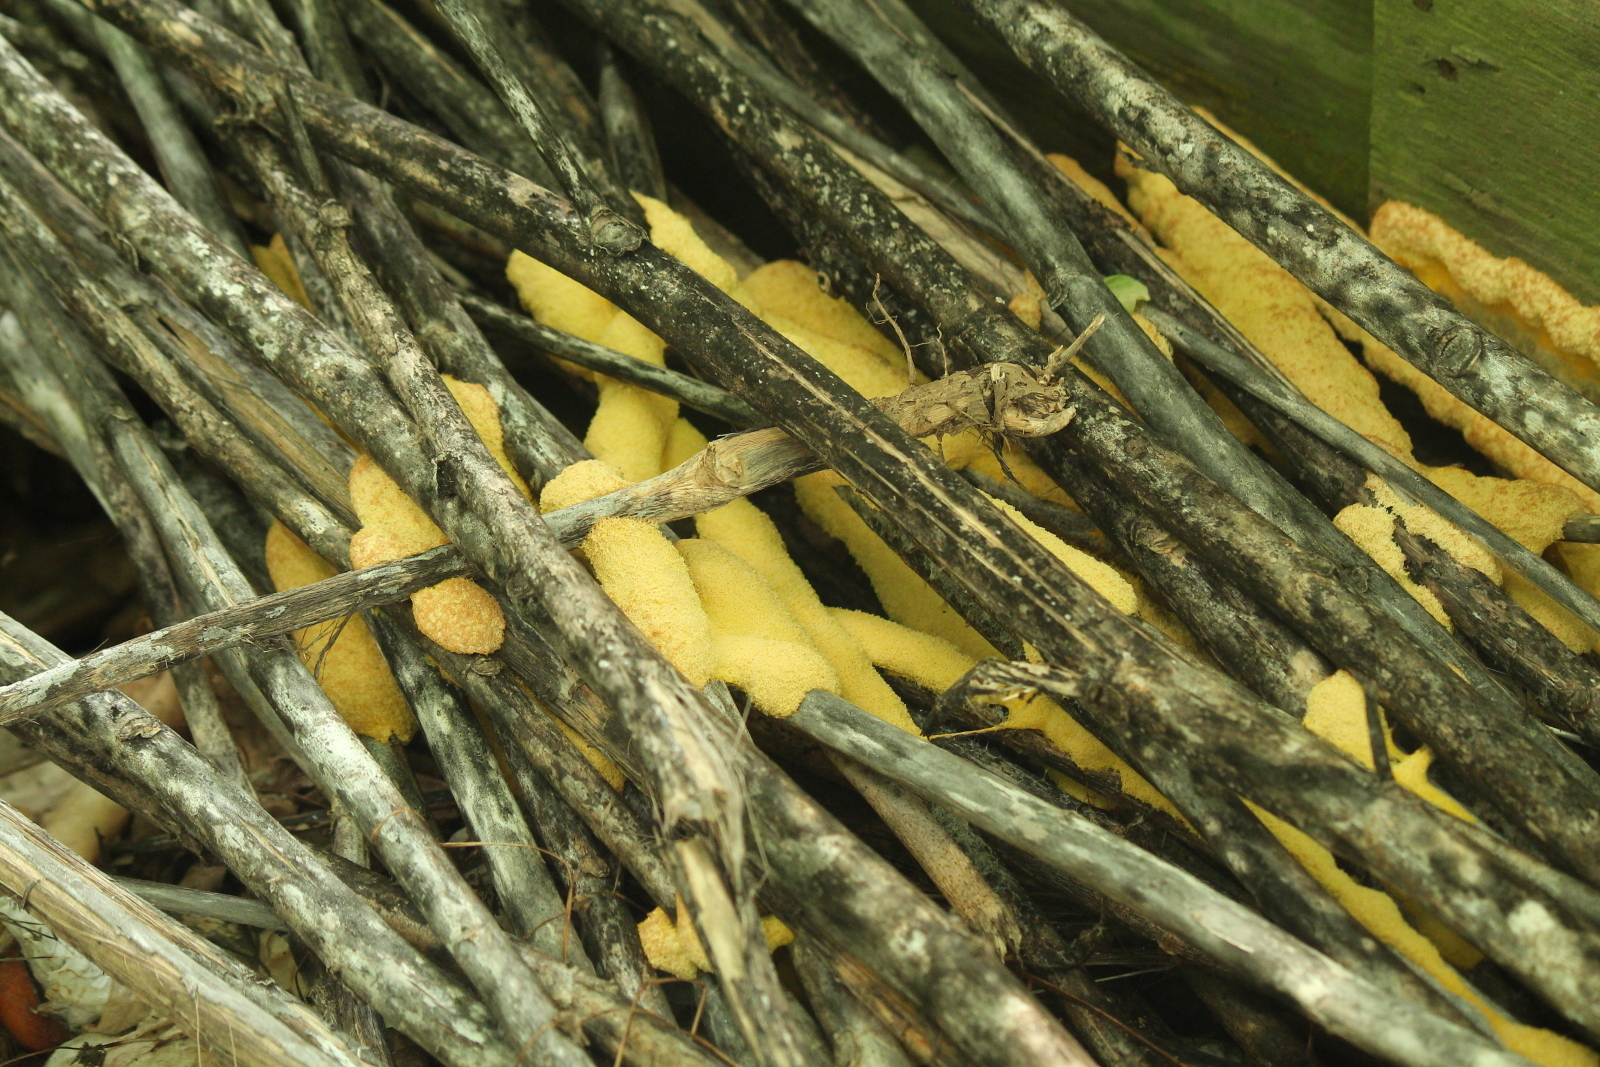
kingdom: Protozoa
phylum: Mycetozoa
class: Myxomycetes
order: Physarales
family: Physaraceae
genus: Fuligo
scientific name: Fuligo septica
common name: Dog vomit slime mold
